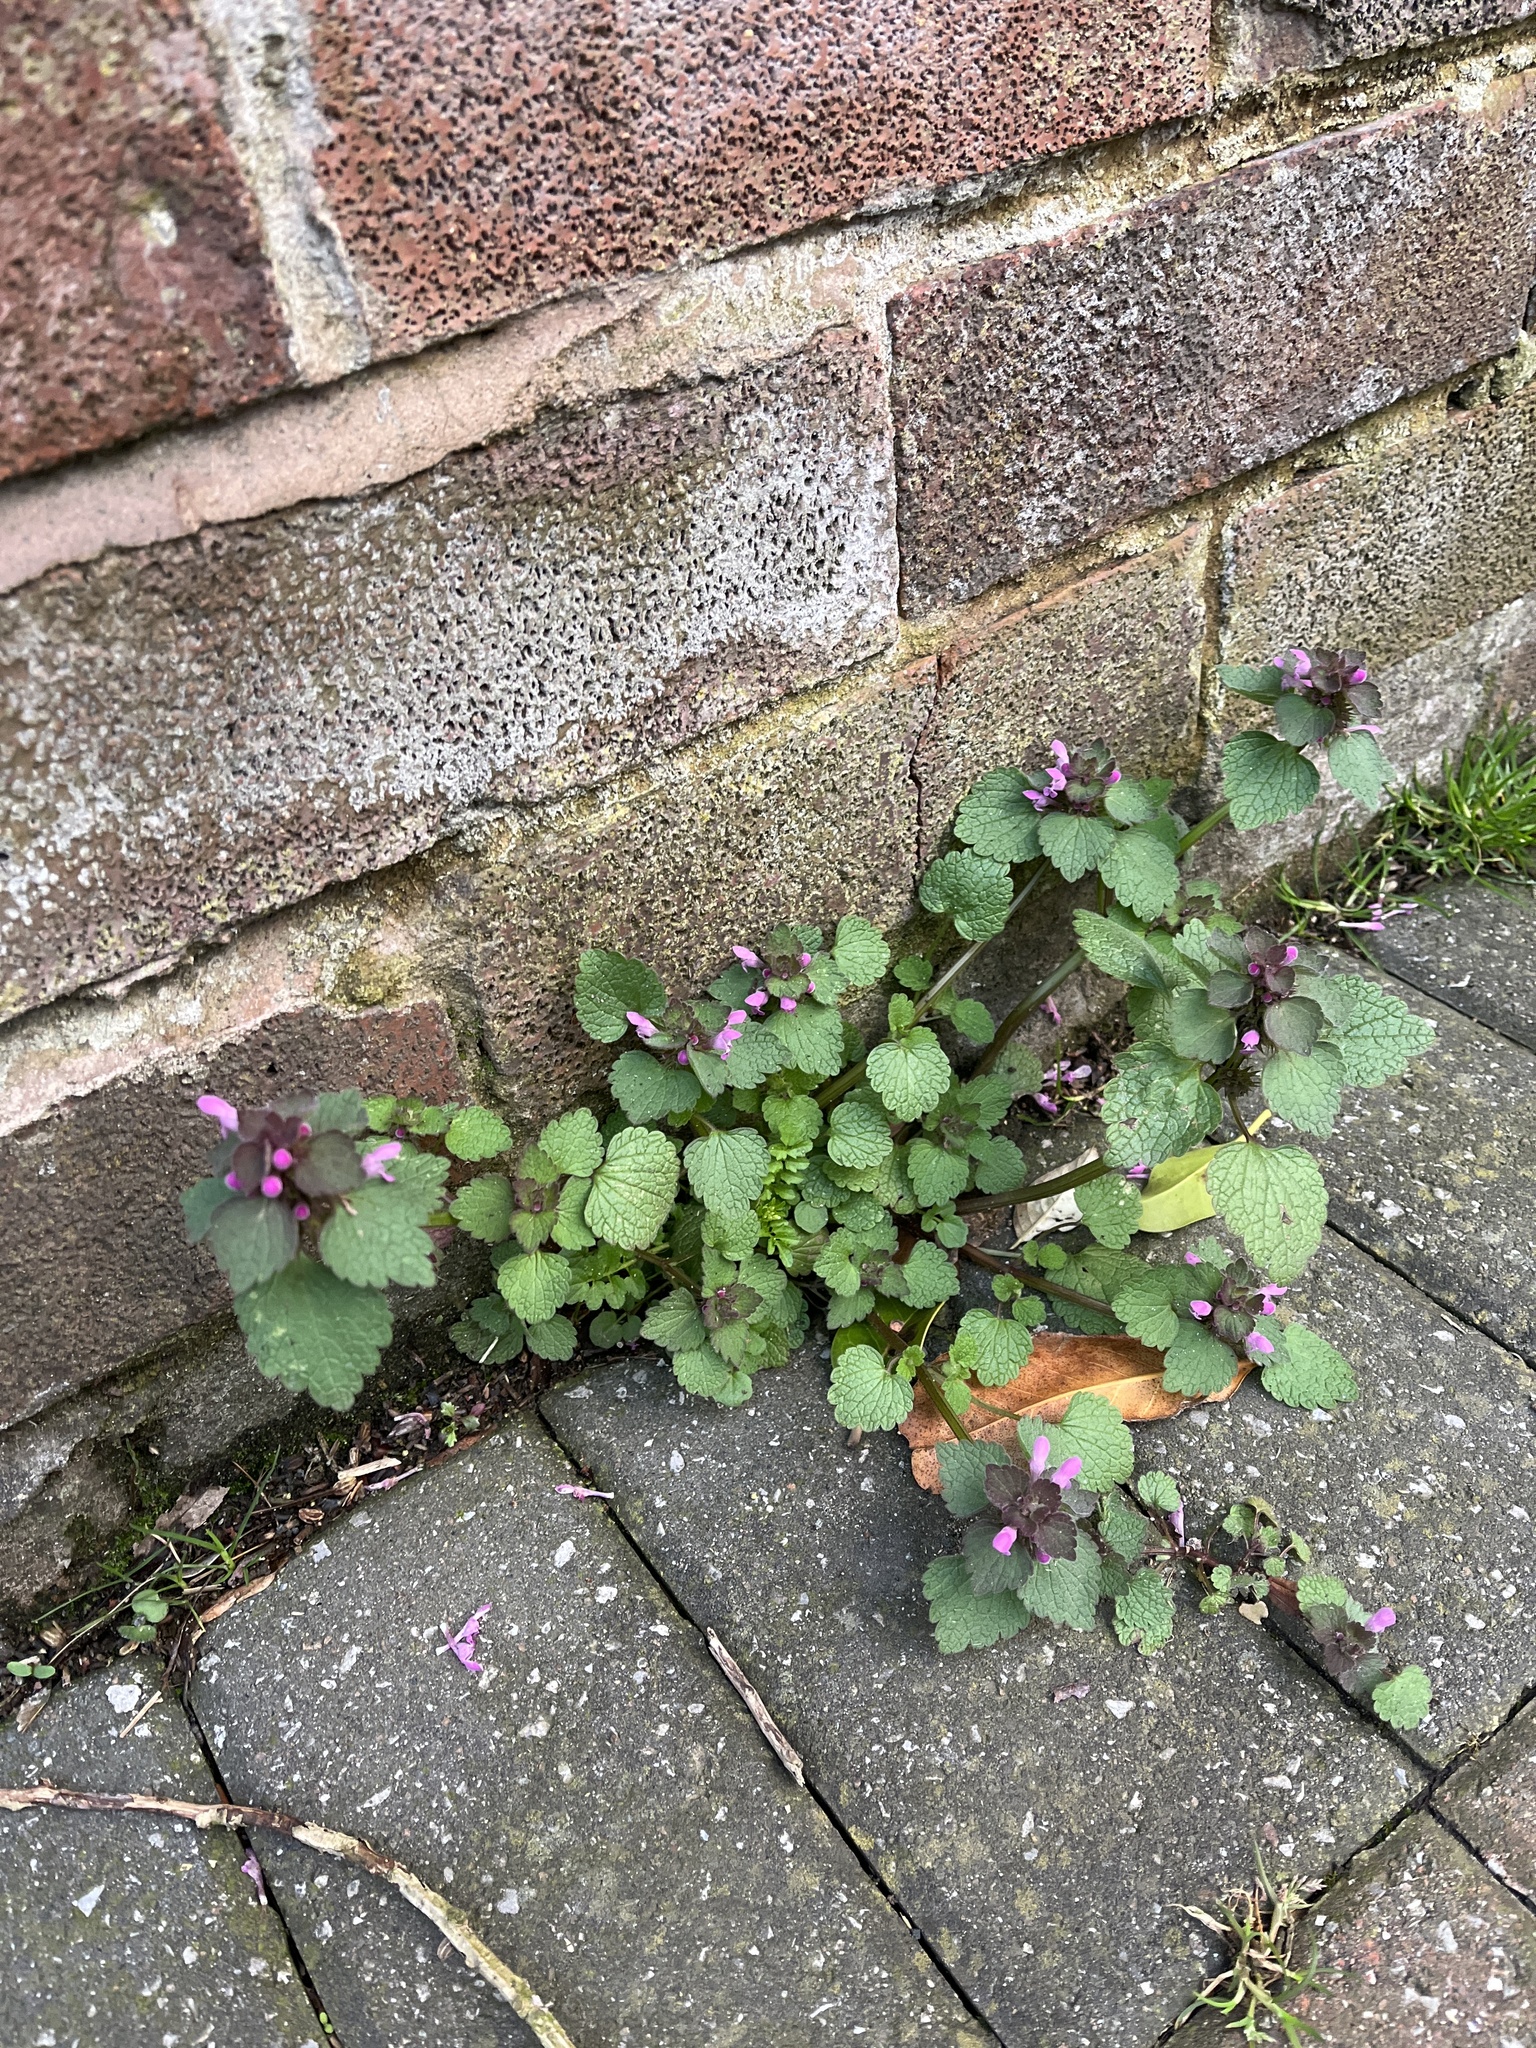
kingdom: Plantae
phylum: Tracheophyta
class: Magnoliopsida
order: Lamiales
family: Lamiaceae
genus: Lamium
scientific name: Lamium purpureum
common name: Red dead-nettle
